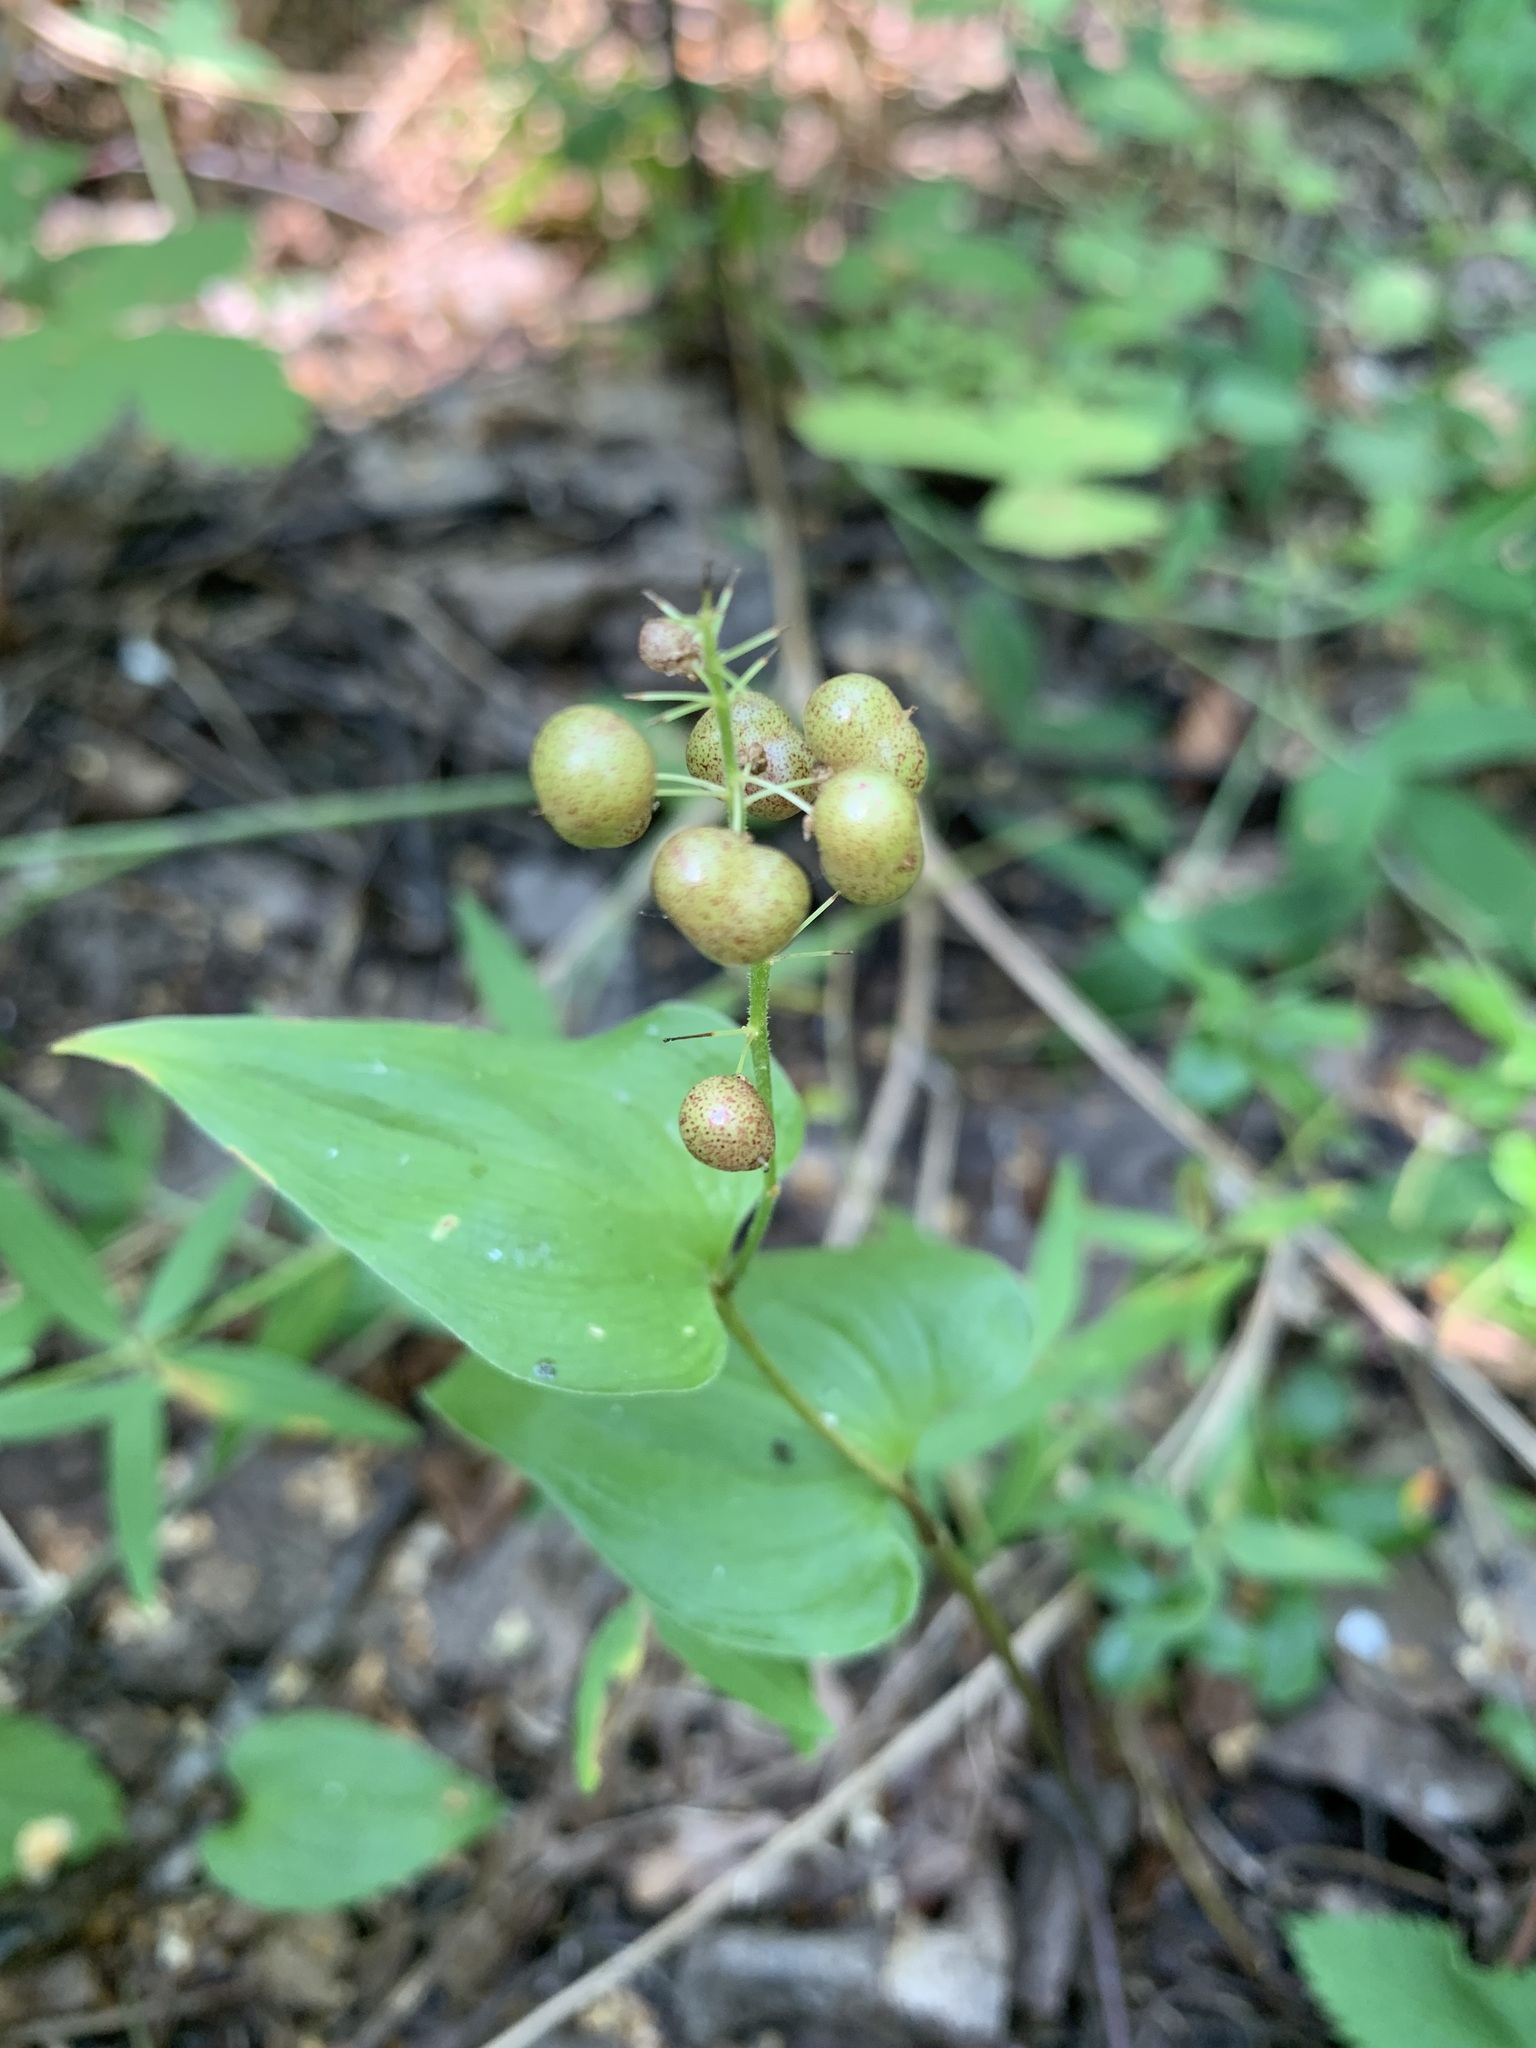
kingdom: Plantae
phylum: Tracheophyta
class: Liliopsida
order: Asparagales
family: Asparagaceae
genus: Maianthemum
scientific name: Maianthemum bifolium
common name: May lily
